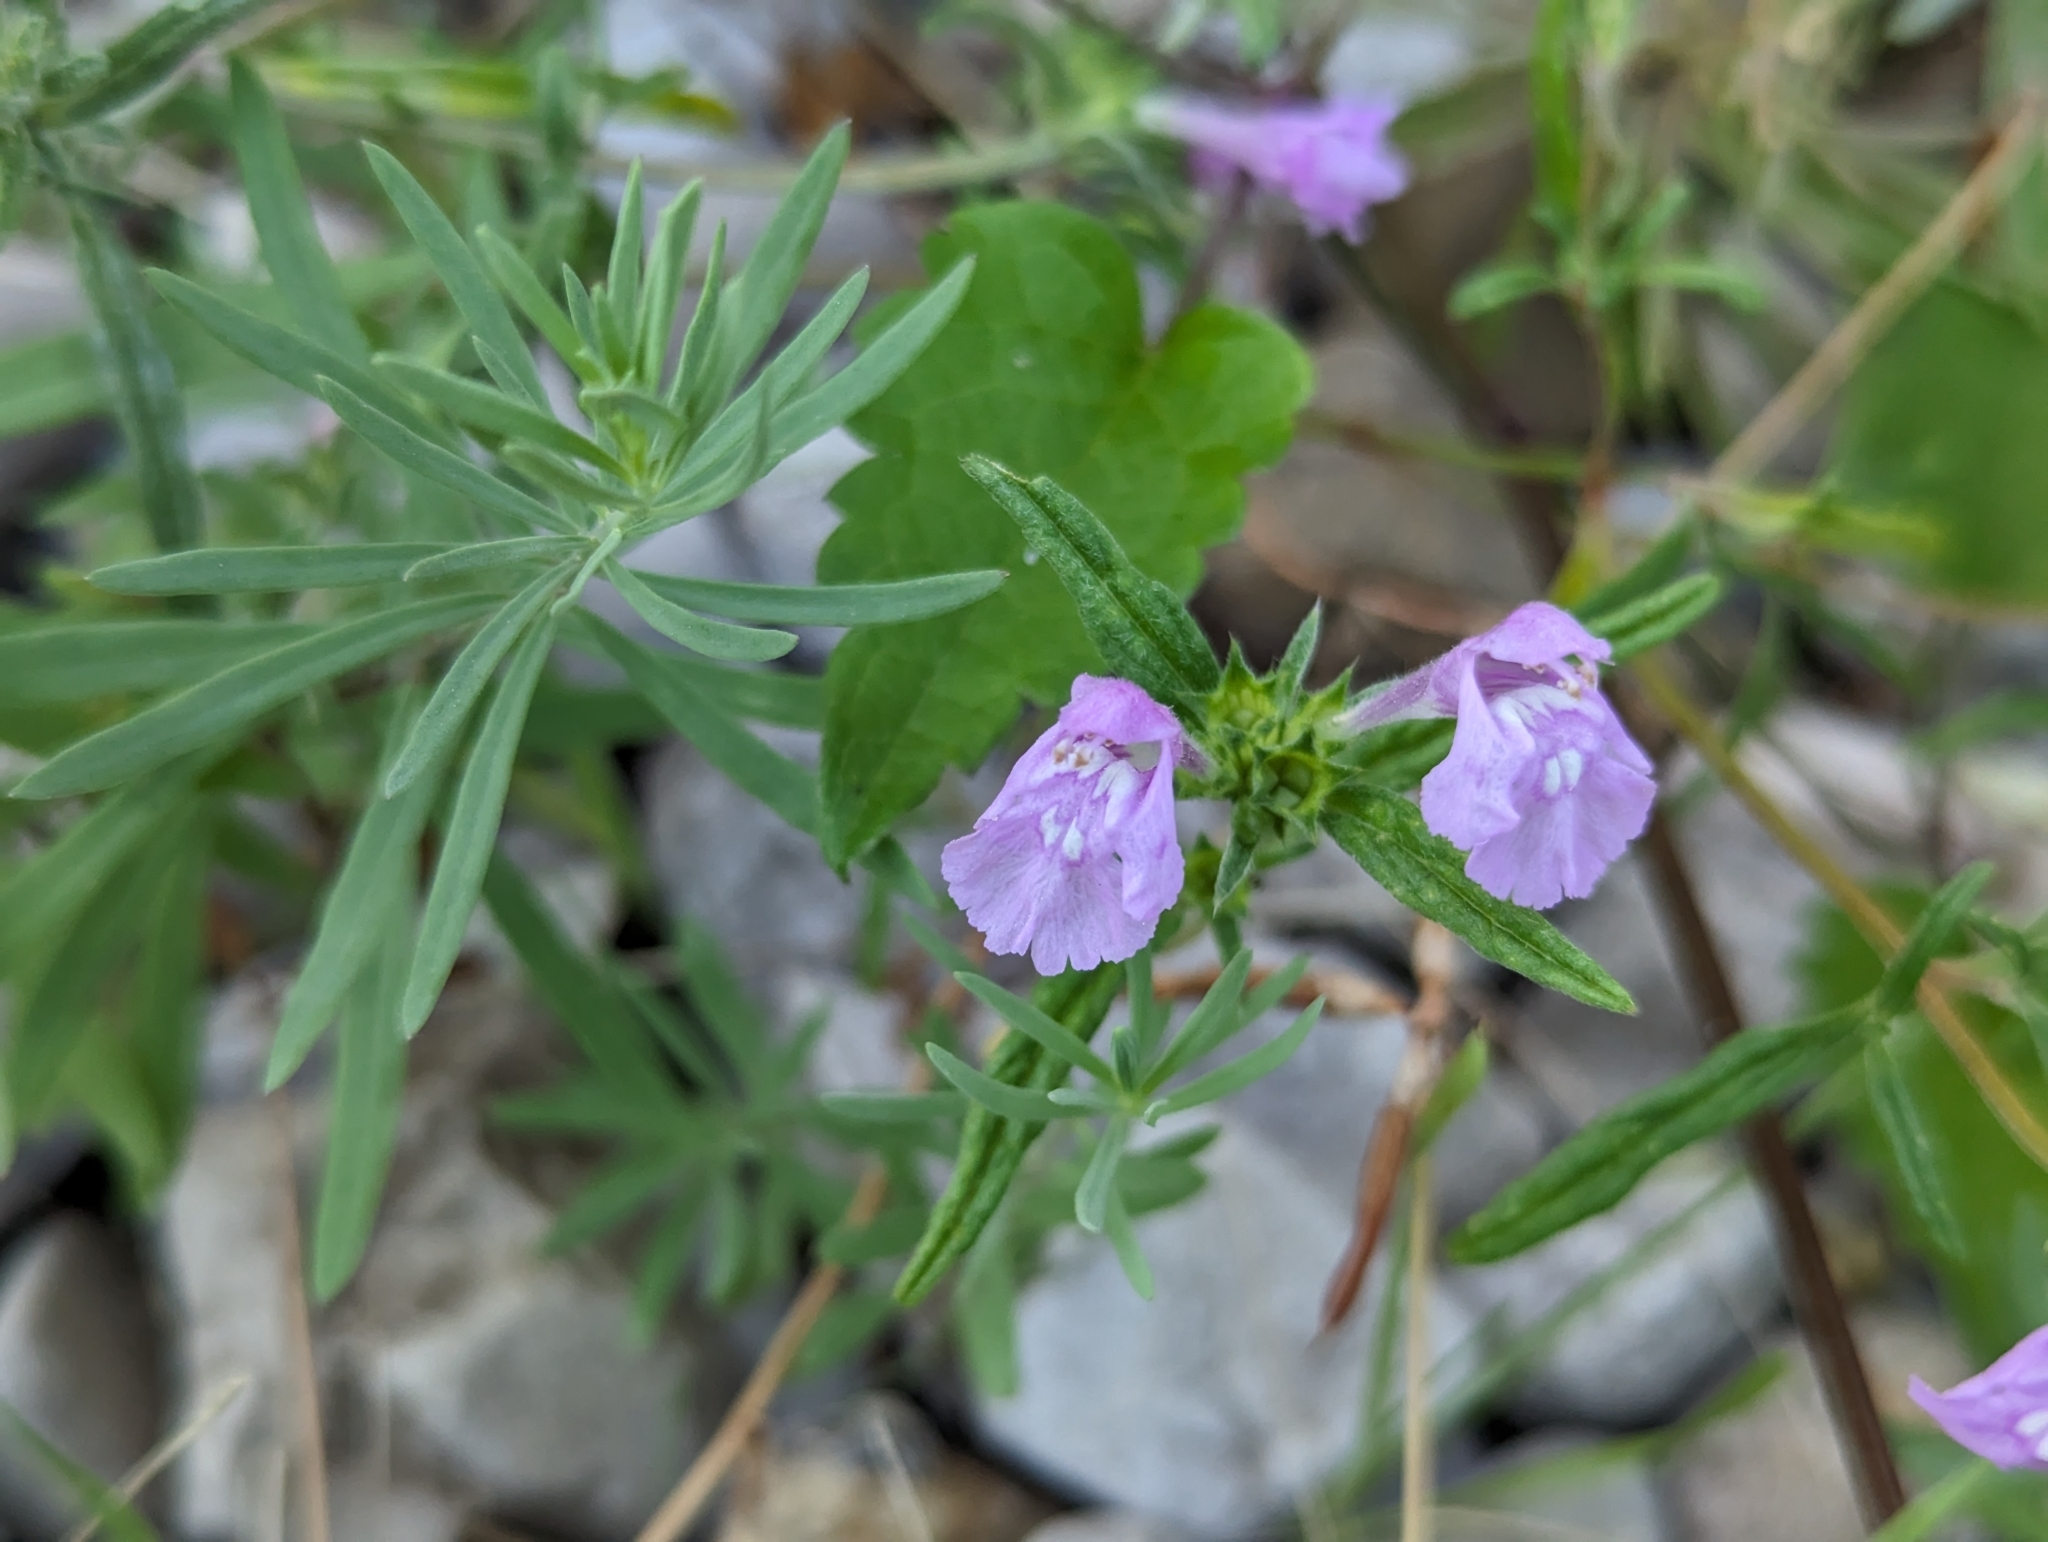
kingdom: Plantae
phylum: Tracheophyta
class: Magnoliopsida
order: Lamiales
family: Lamiaceae
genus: Galeopsis
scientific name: Galeopsis angustifolia
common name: Red hemp-nettle
